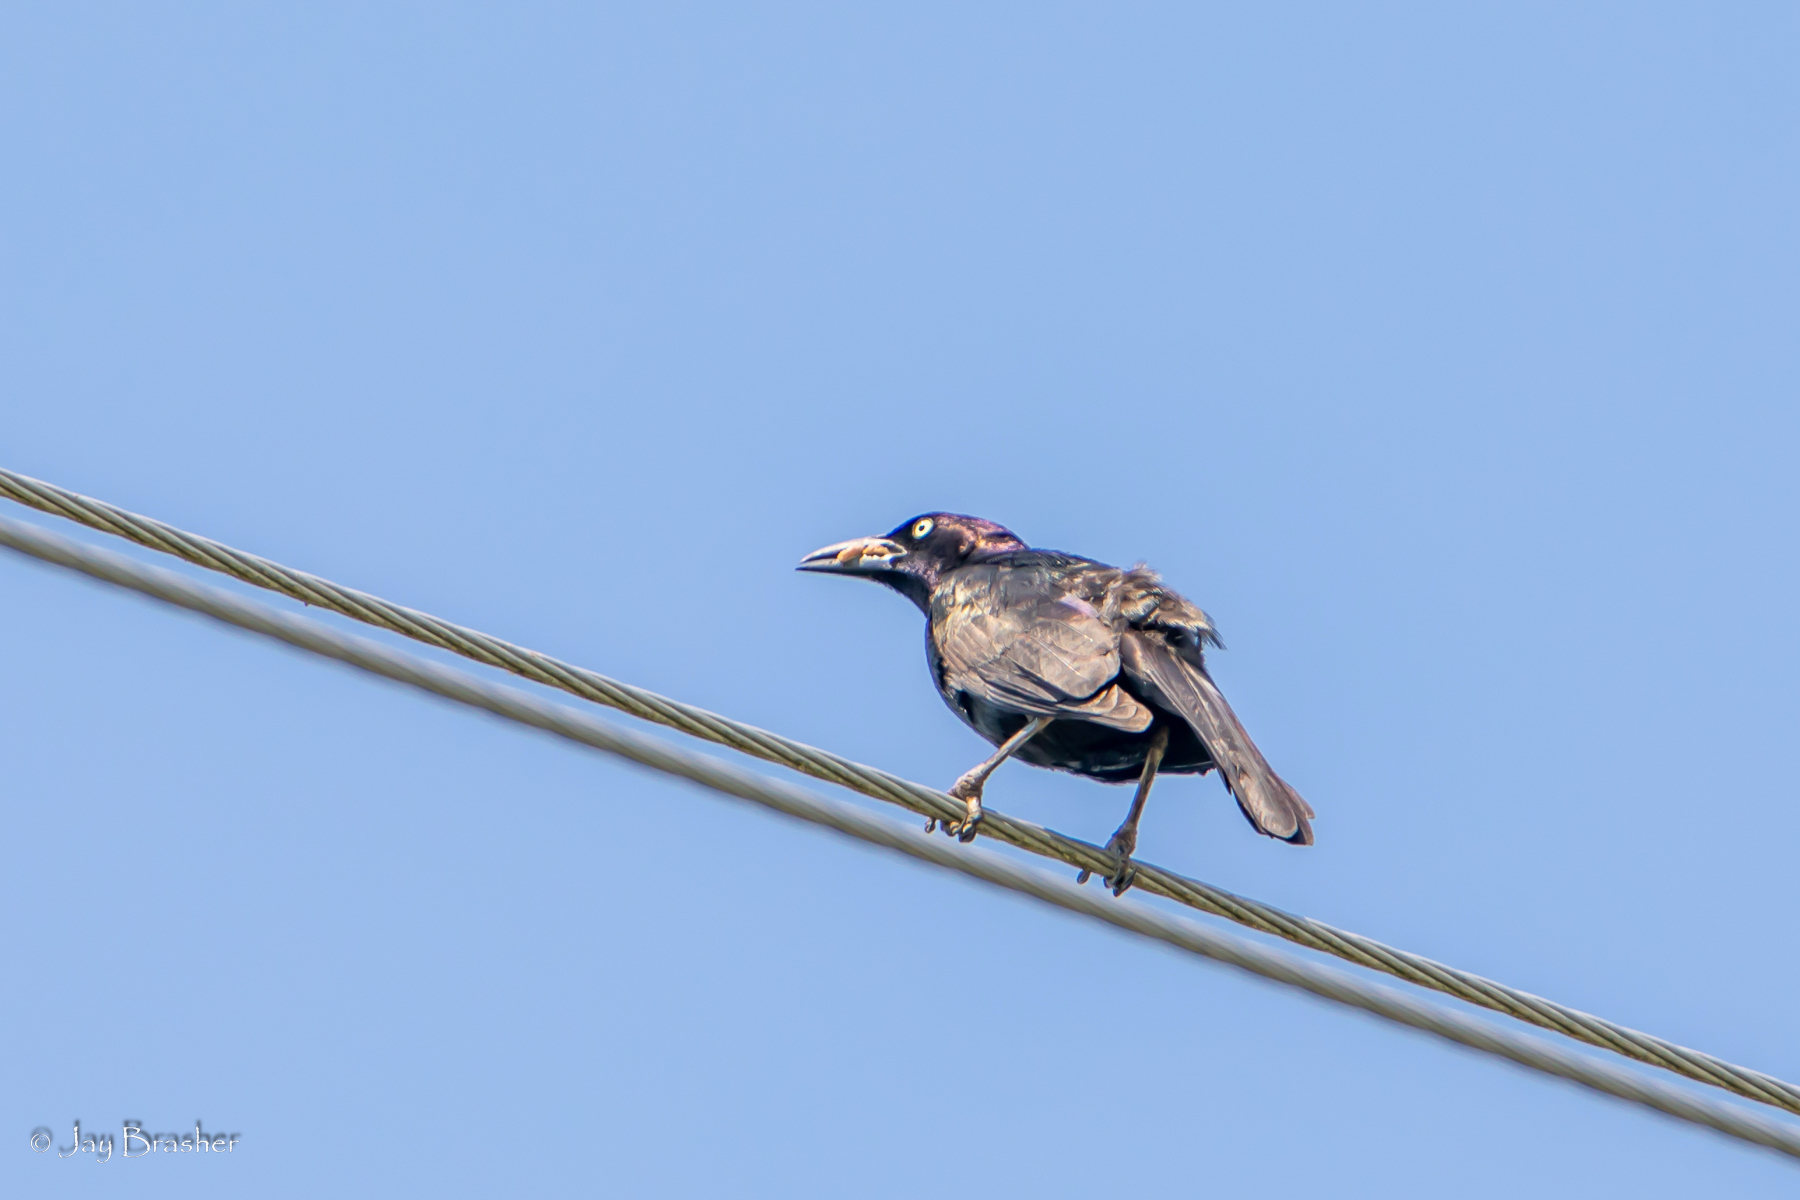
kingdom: Animalia
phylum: Chordata
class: Aves
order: Passeriformes
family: Icteridae
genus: Quiscalus
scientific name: Quiscalus quiscula
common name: Common grackle
